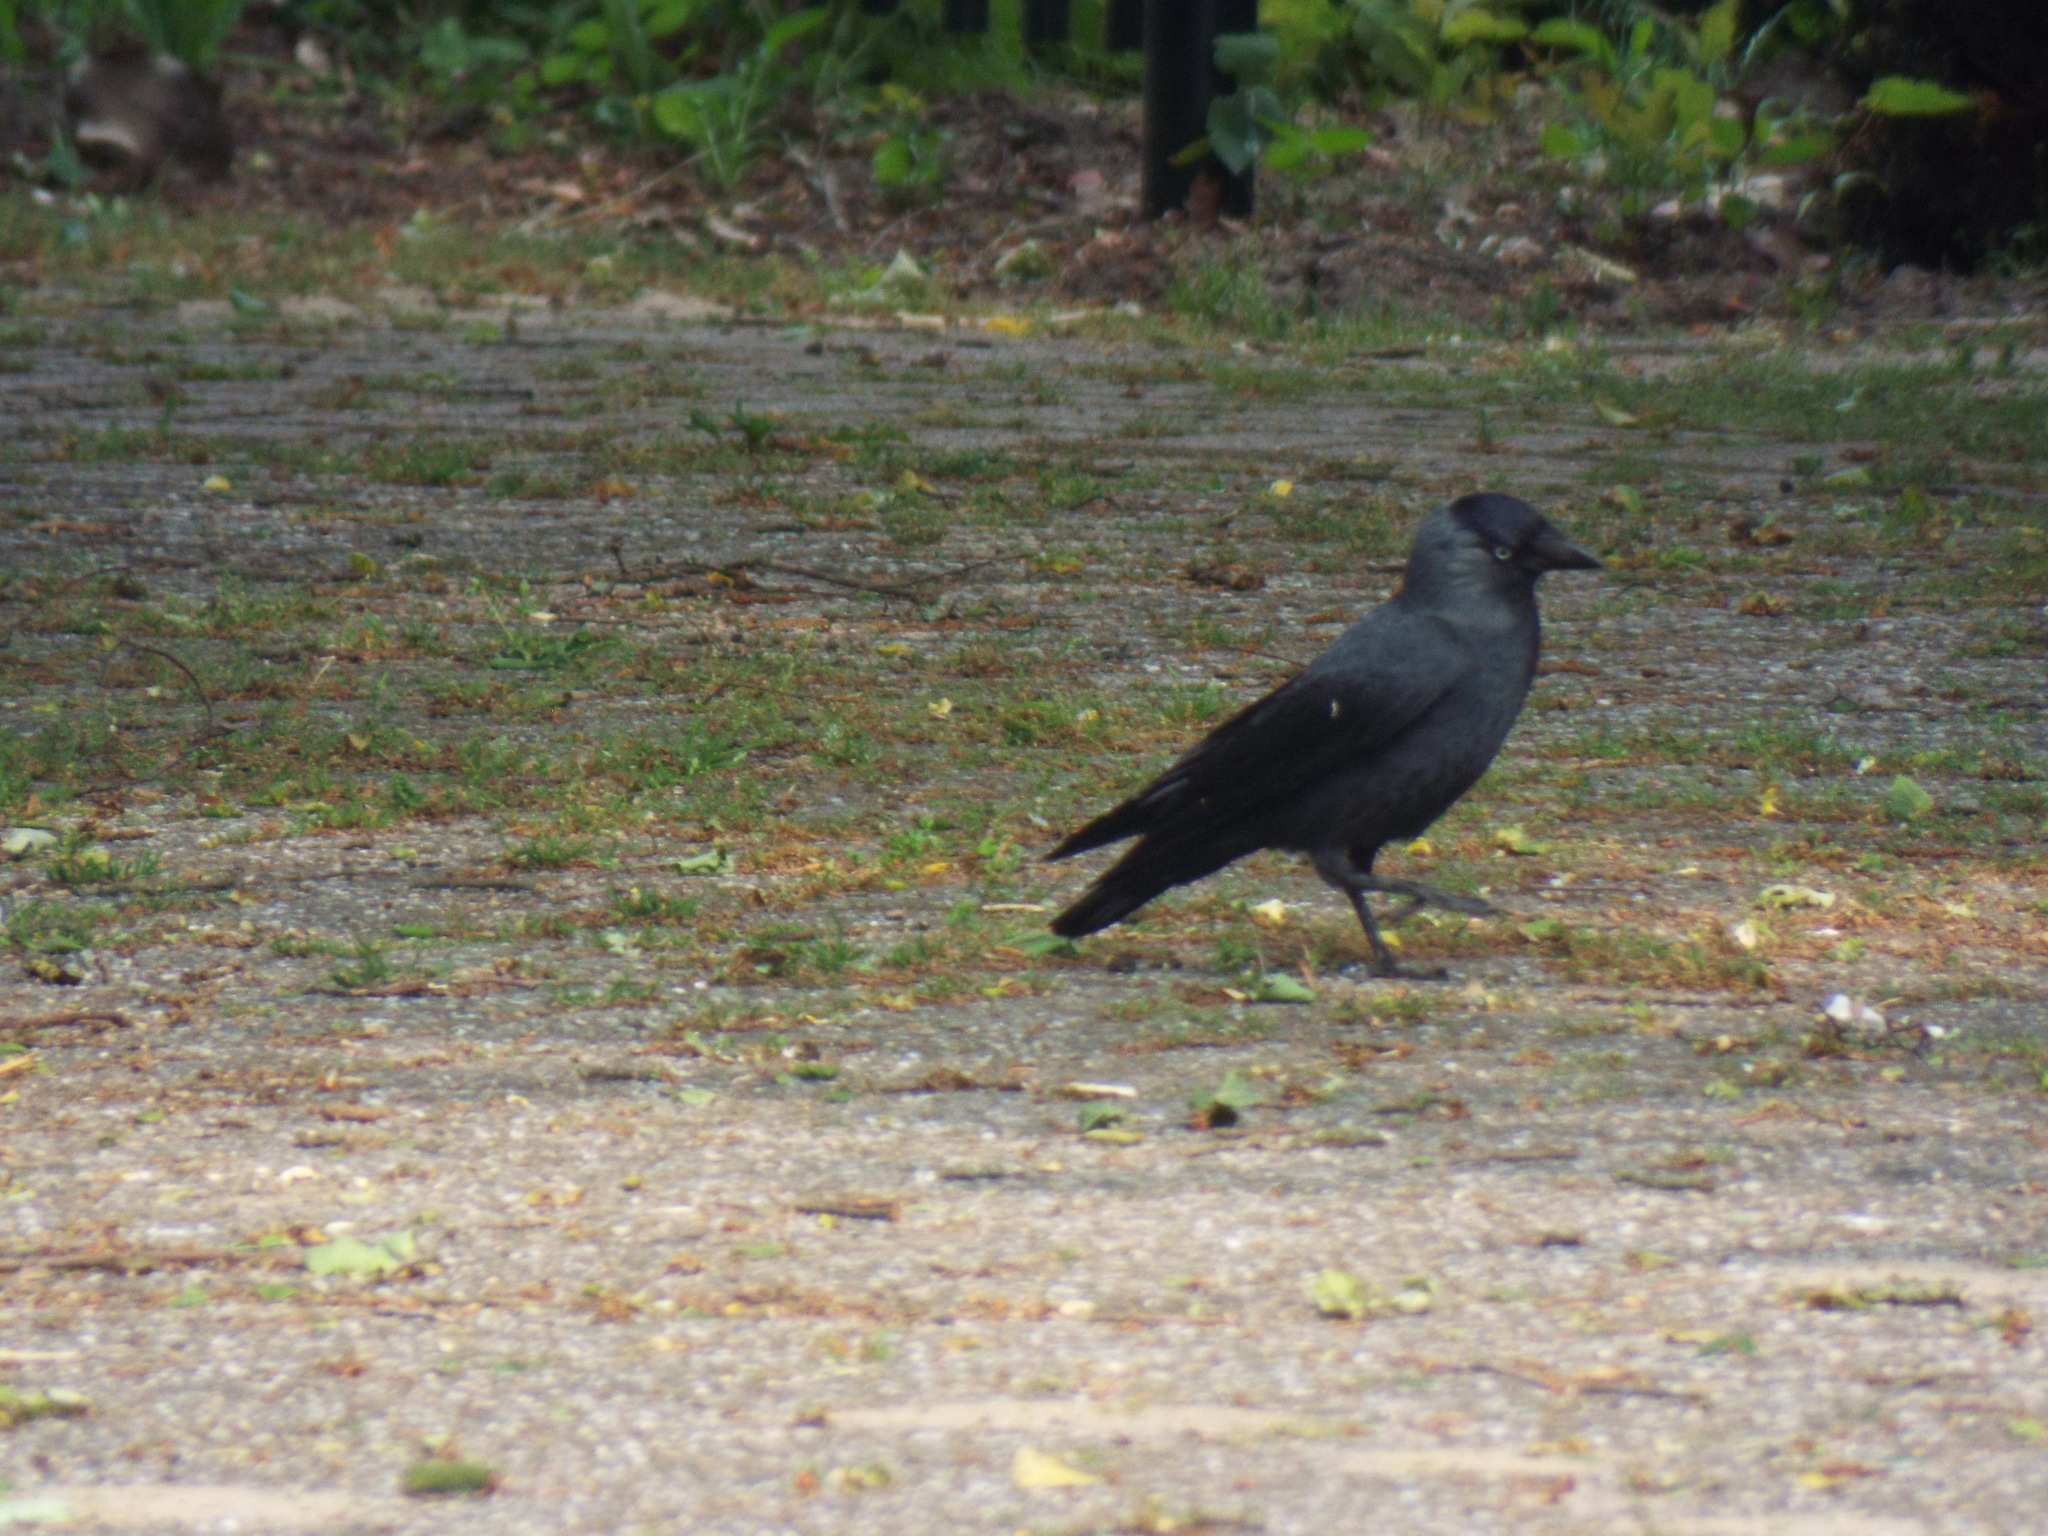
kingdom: Animalia
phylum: Chordata
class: Aves
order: Passeriformes
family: Corvidae
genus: Coloeus
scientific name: Coloeus monedula
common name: Western jackdaw
